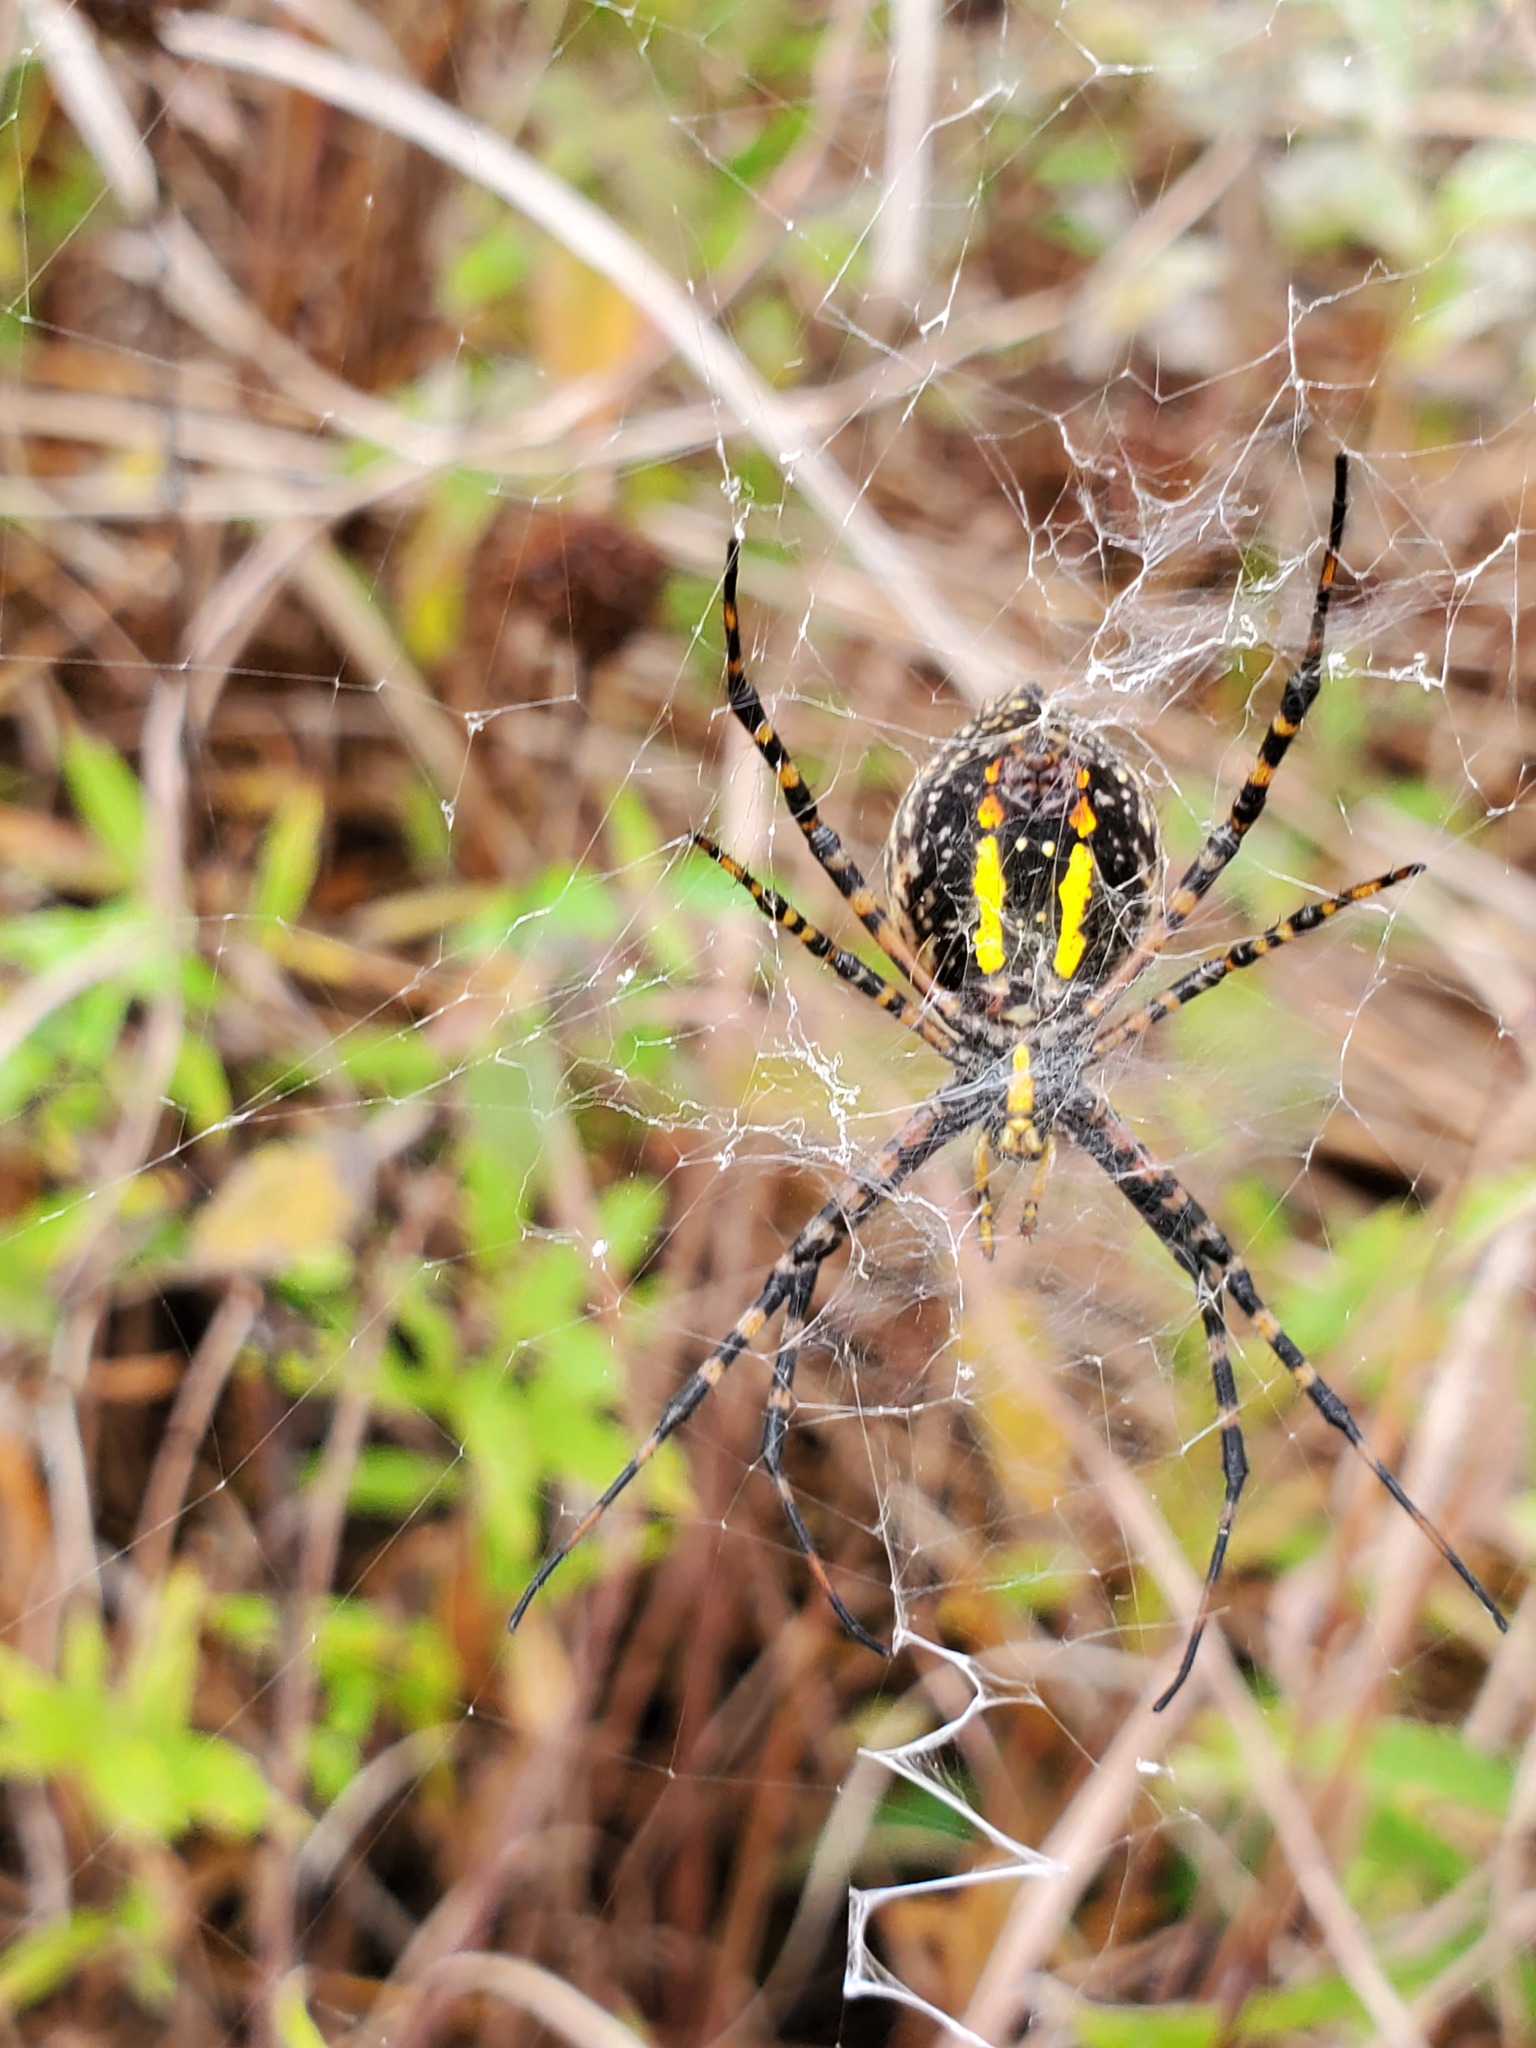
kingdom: Animalia
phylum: Arthropoda
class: Arachnida
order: Araneae
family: Araneidae
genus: Argiope
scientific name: Argiope trifasciata
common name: Banded garden spider
